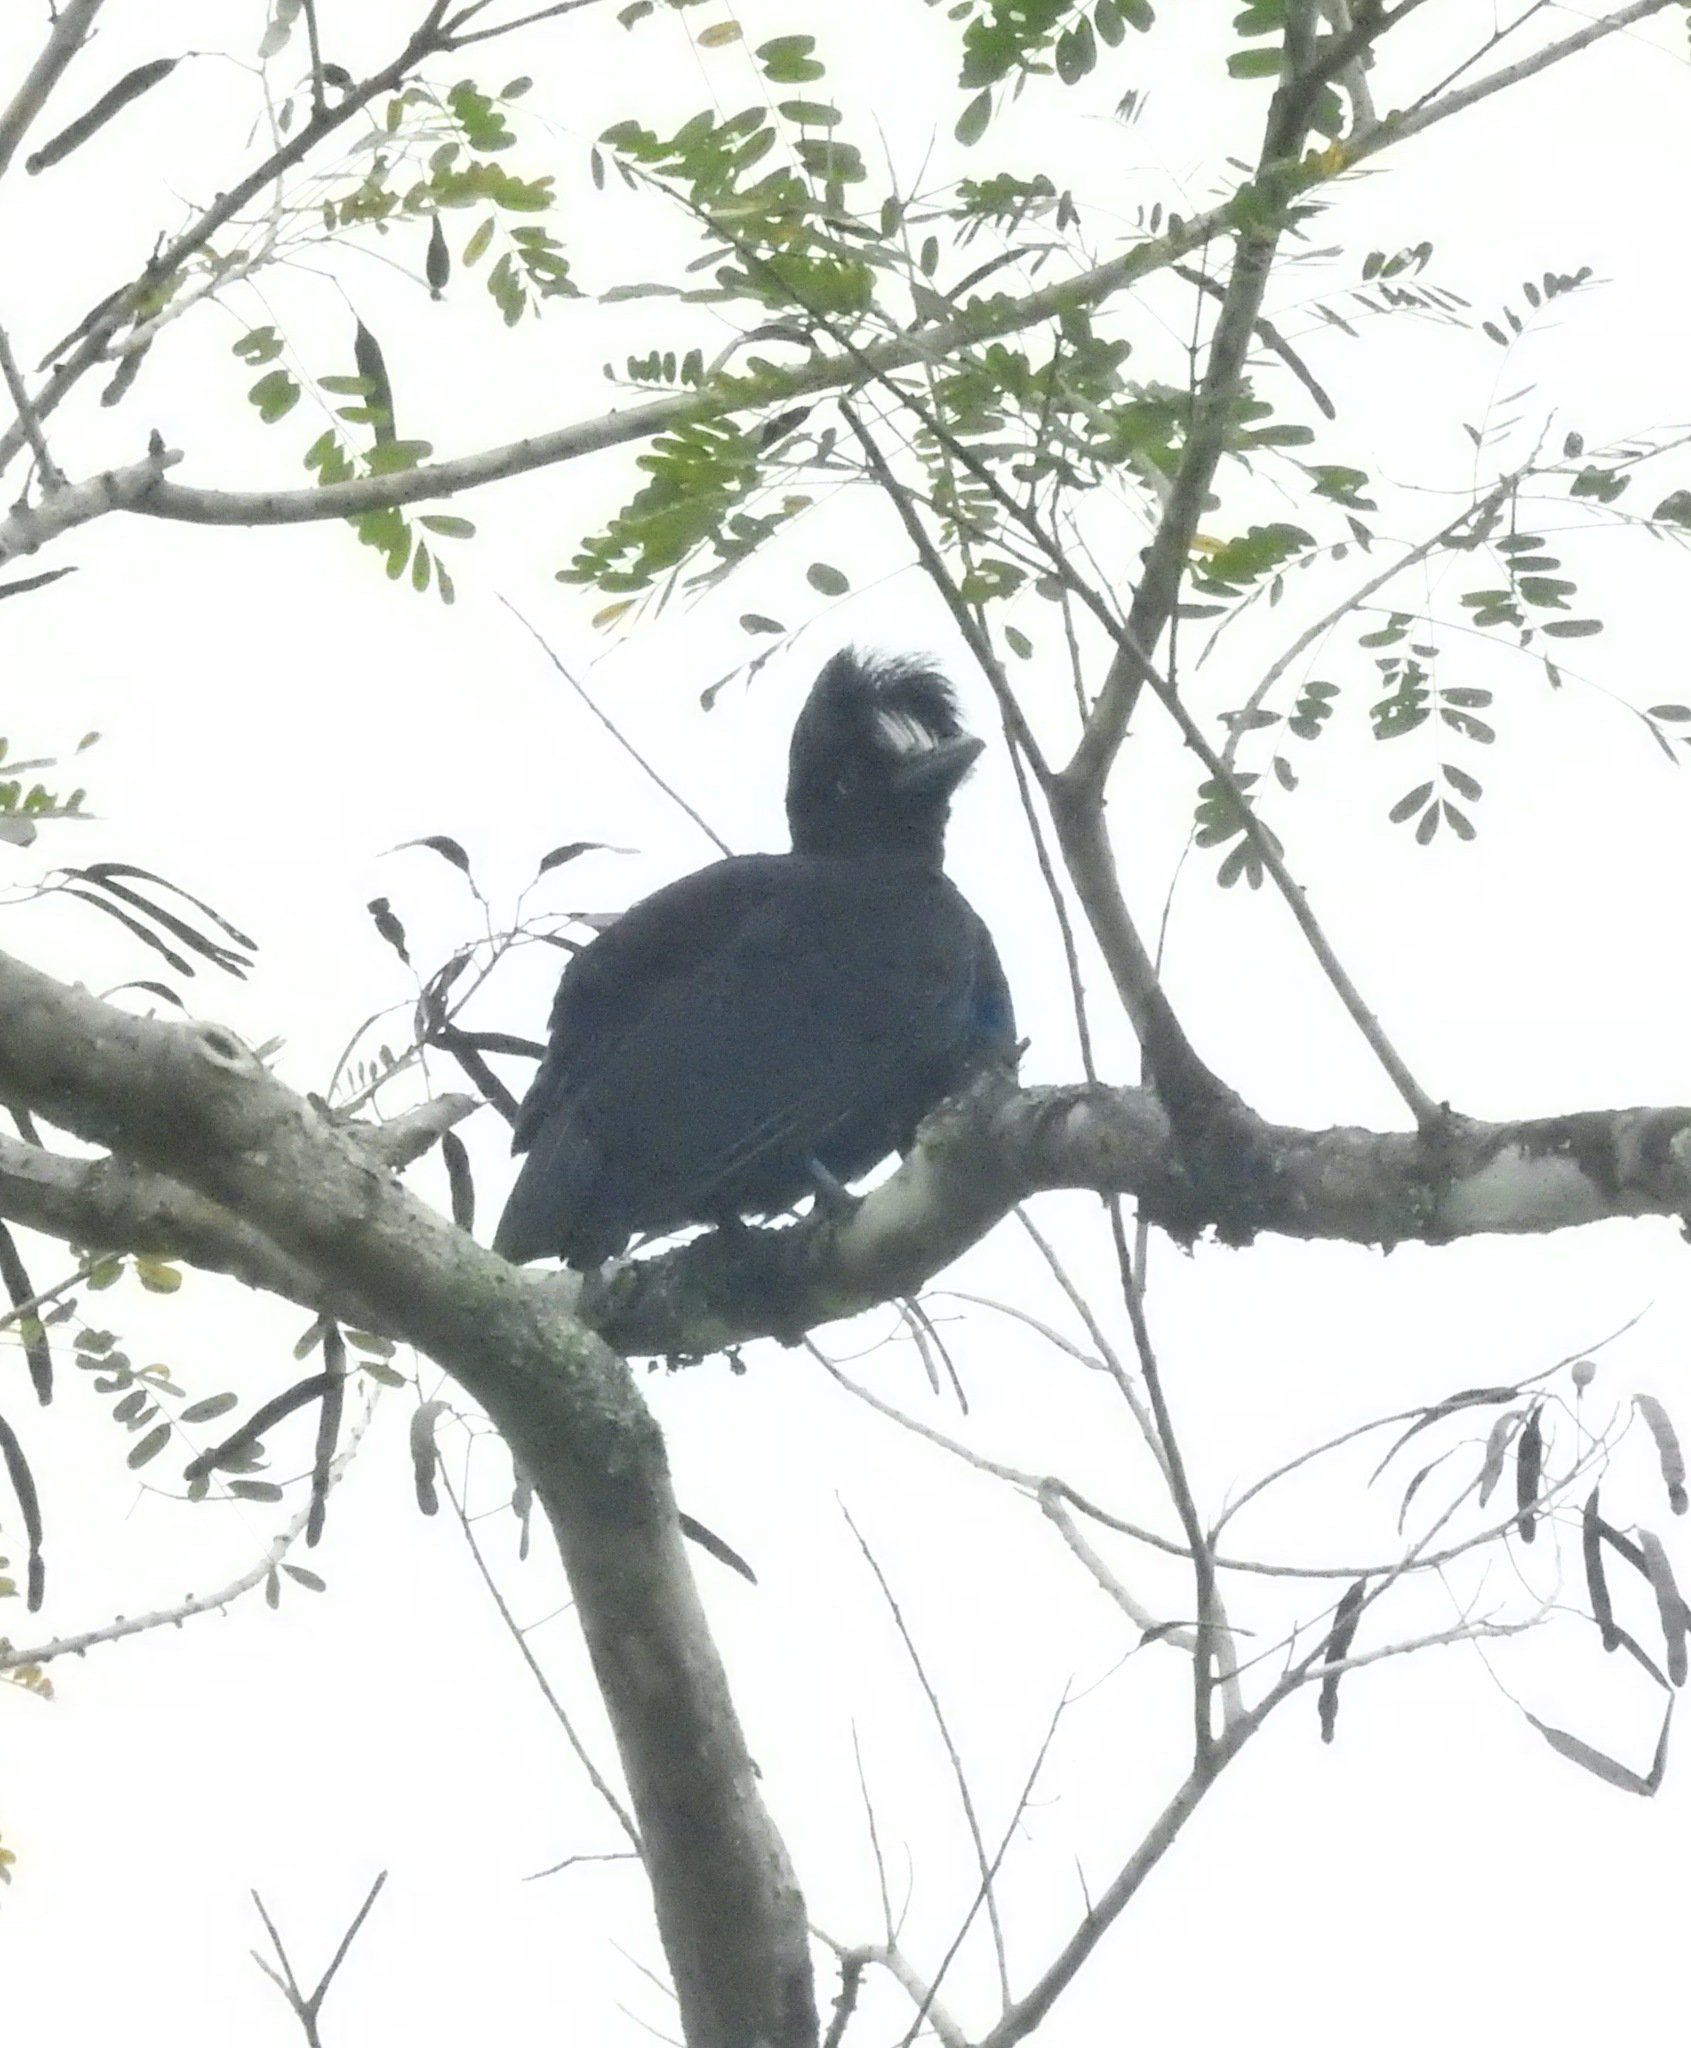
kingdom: Animalia
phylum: Chordata
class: Aves
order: Passeriformes
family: Cotingidae
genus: Cephalopterus
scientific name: Cephalopterus ornatus
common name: Amazonian umbrellabird
